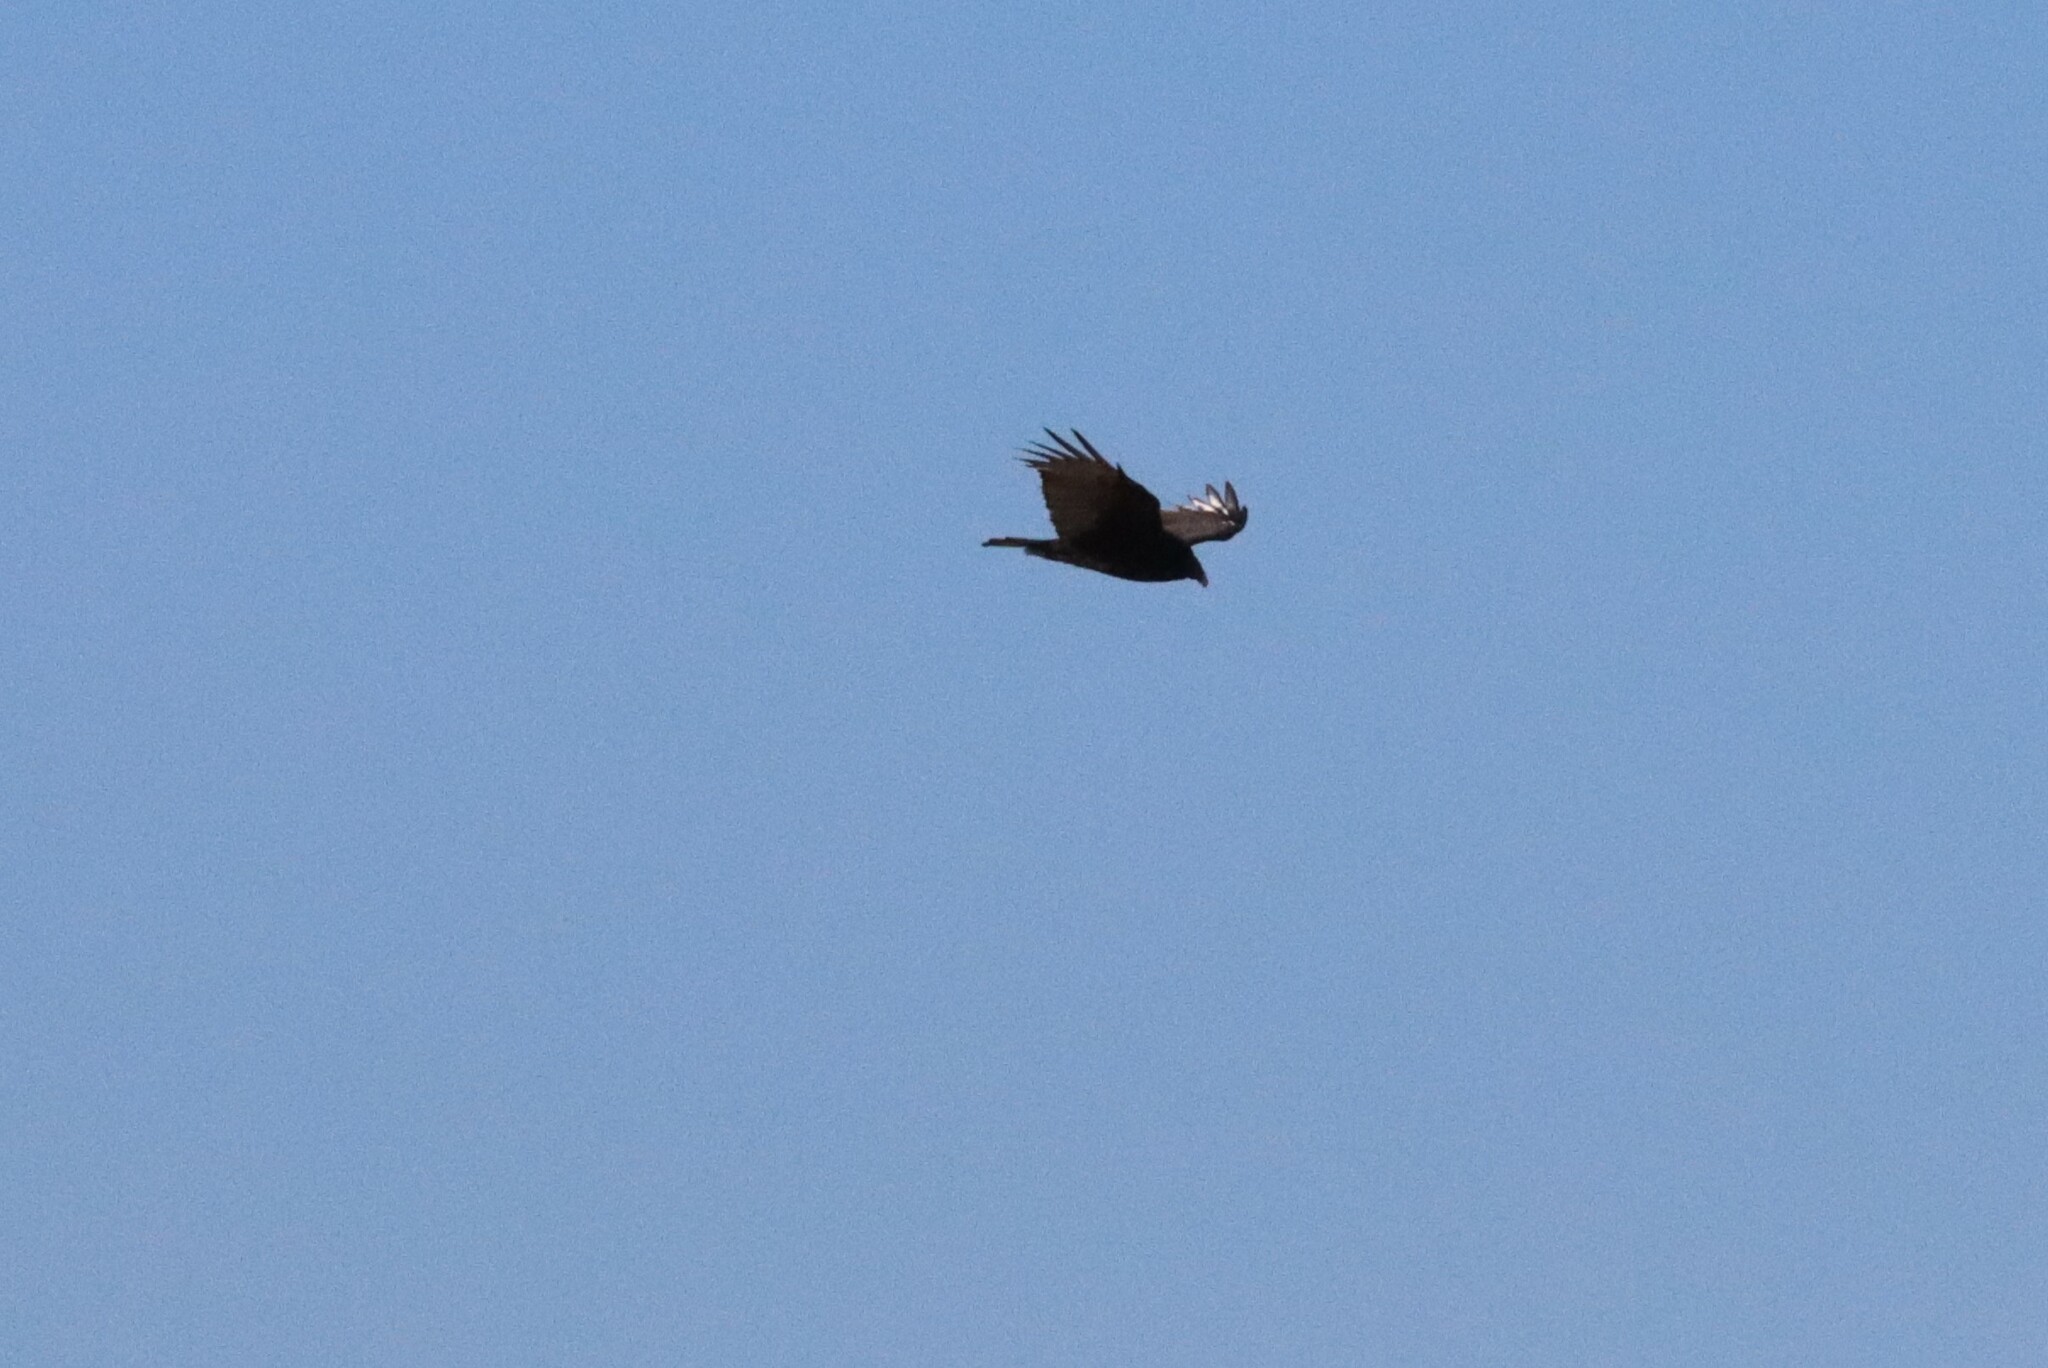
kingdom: Animalia
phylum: Chordata
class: Aves
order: Accipitriformes
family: Cathartidae
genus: Cathartes
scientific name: Cathartes aura
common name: Turkey vulture
